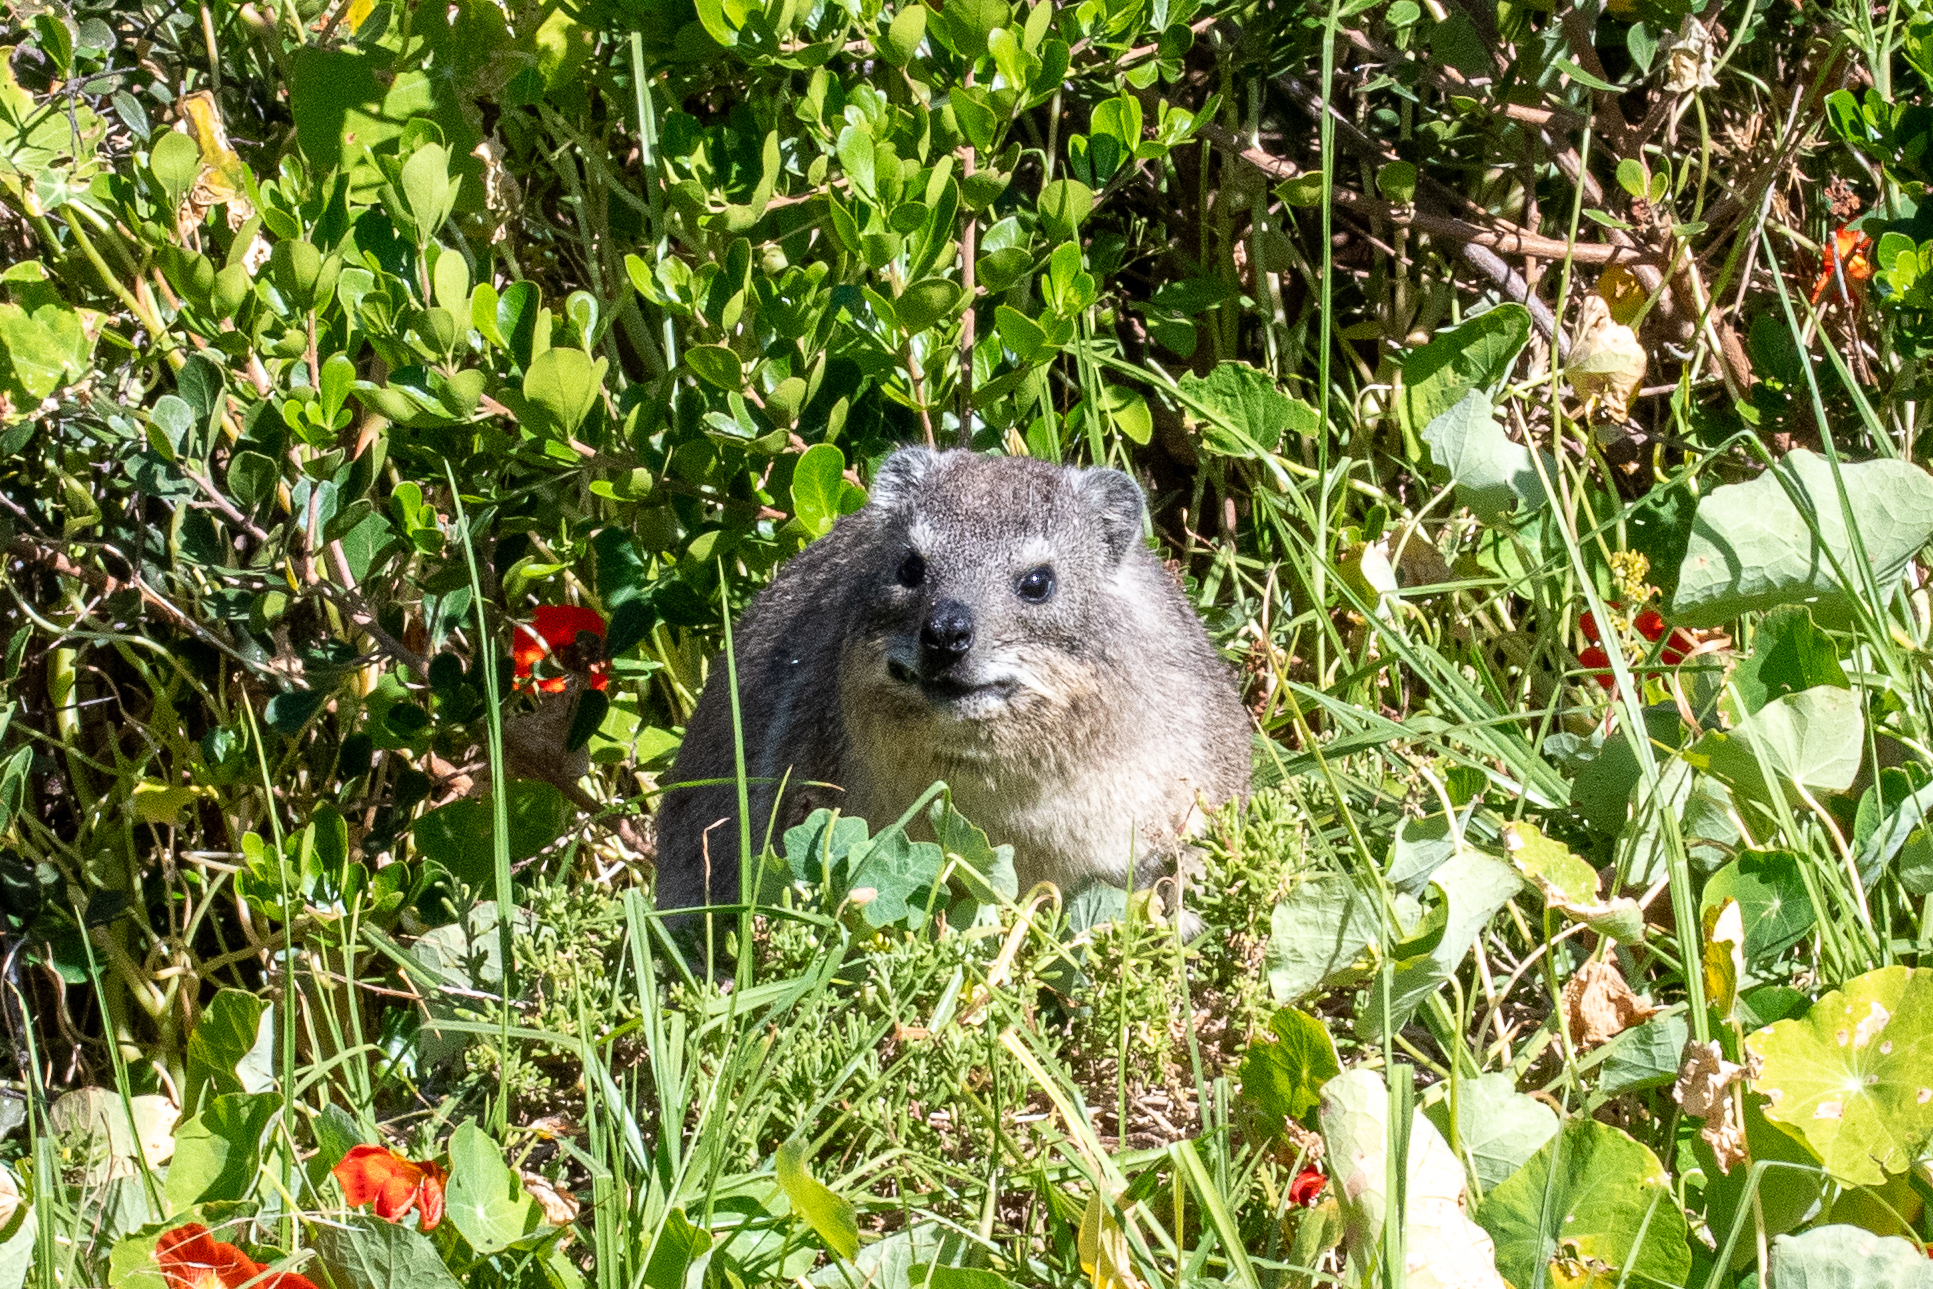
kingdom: Animalia
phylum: Chordata
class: Mammalia
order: Hyracoidea
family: Procaviidae
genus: Procavia
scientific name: Procavia capensis
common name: Rock hyrax
